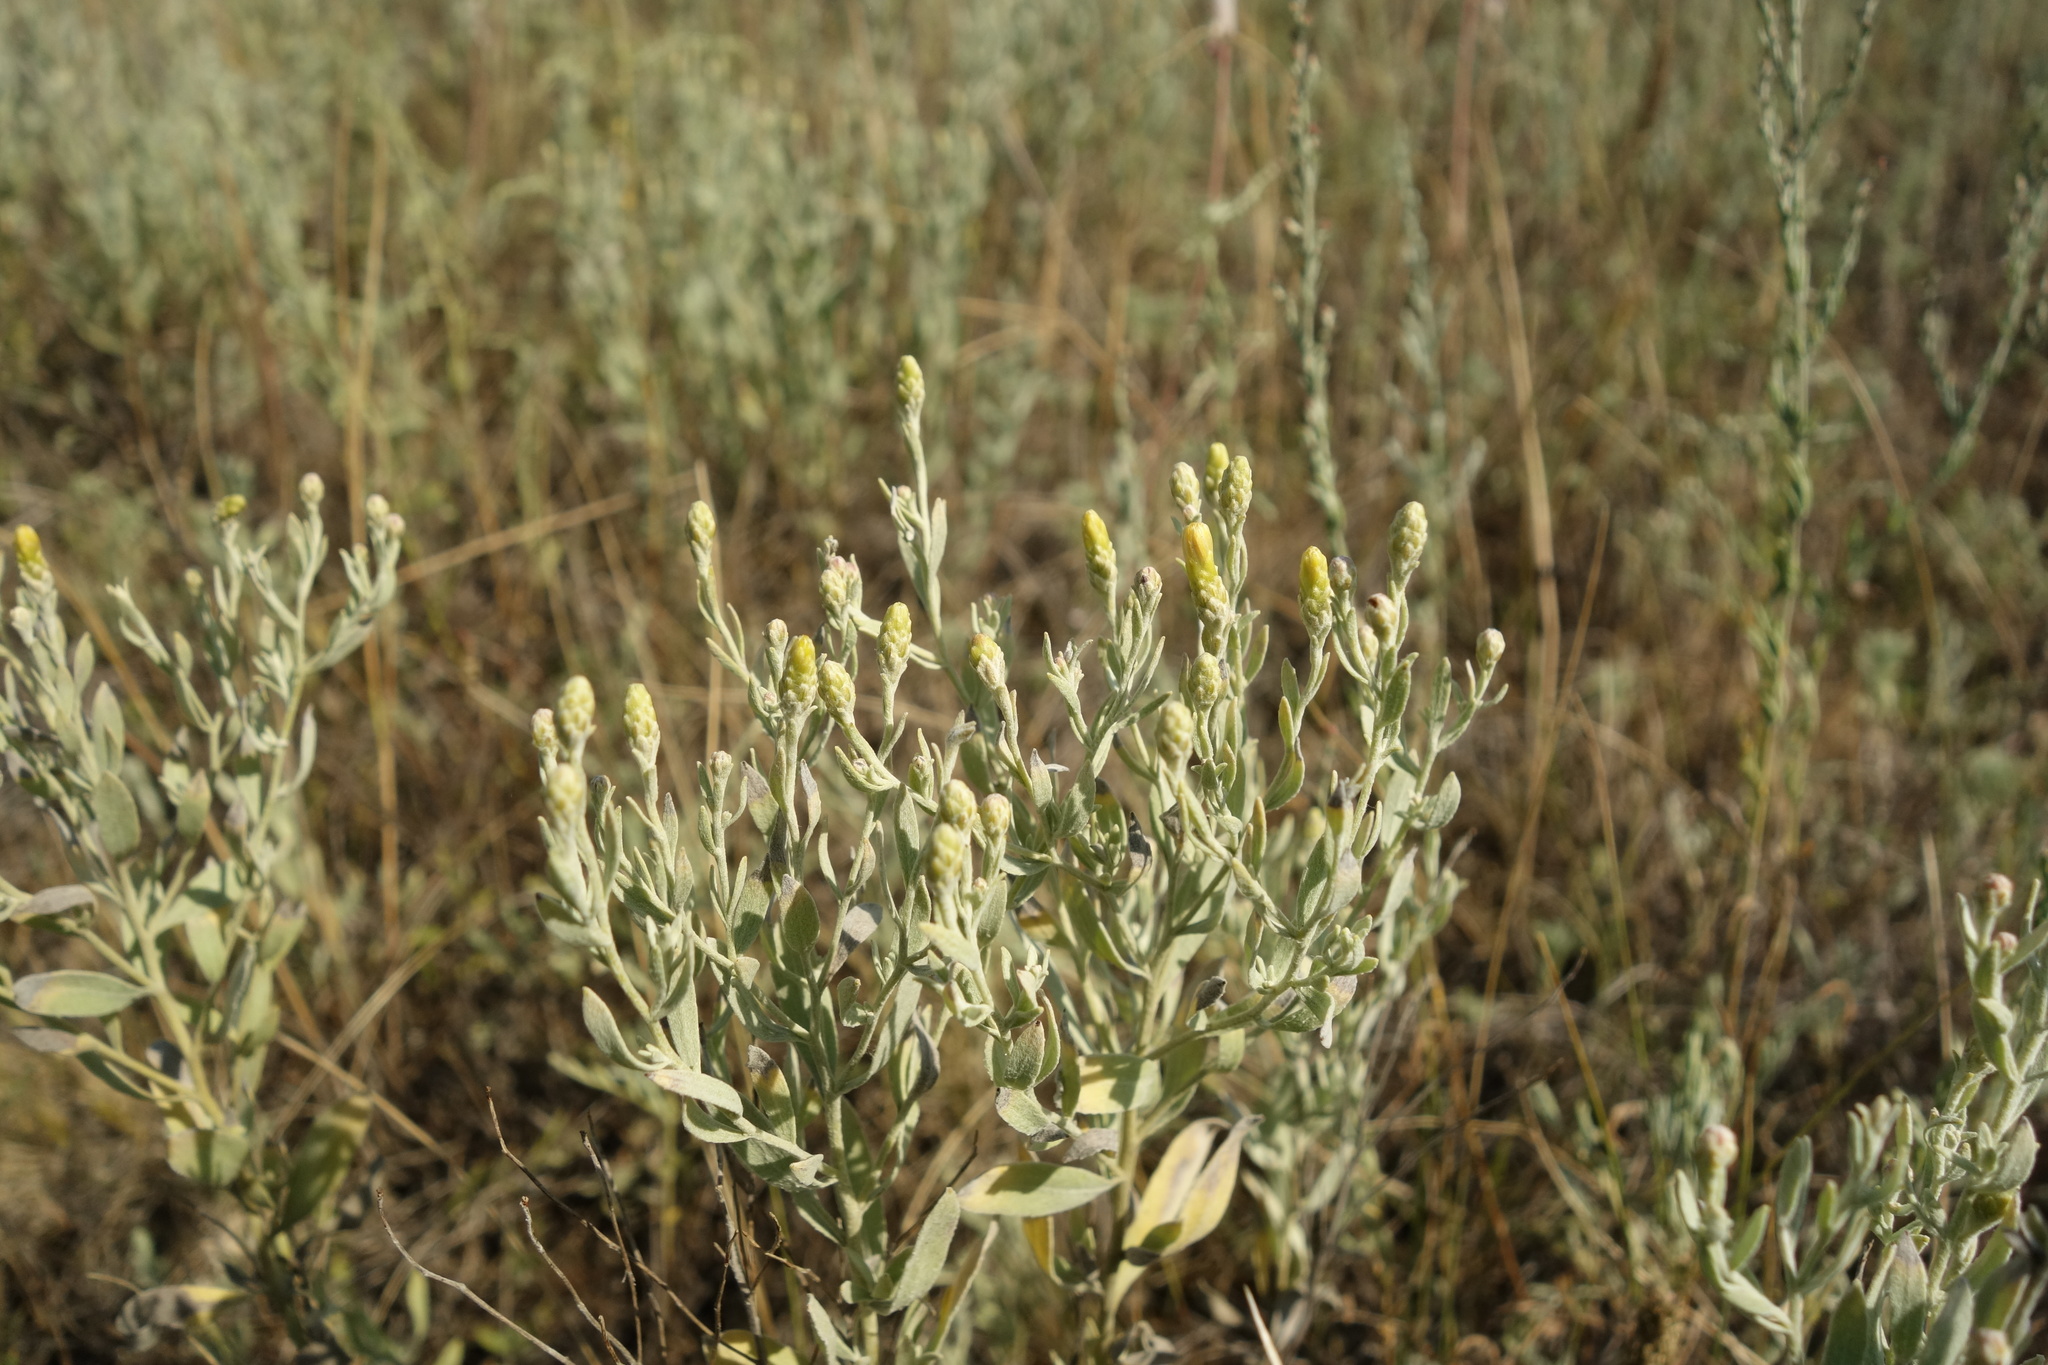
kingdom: Plantae
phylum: Tracheophyta
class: Magnoliopsida
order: Asterales
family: Asteraceae
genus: Galatella
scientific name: Galatella villosa
